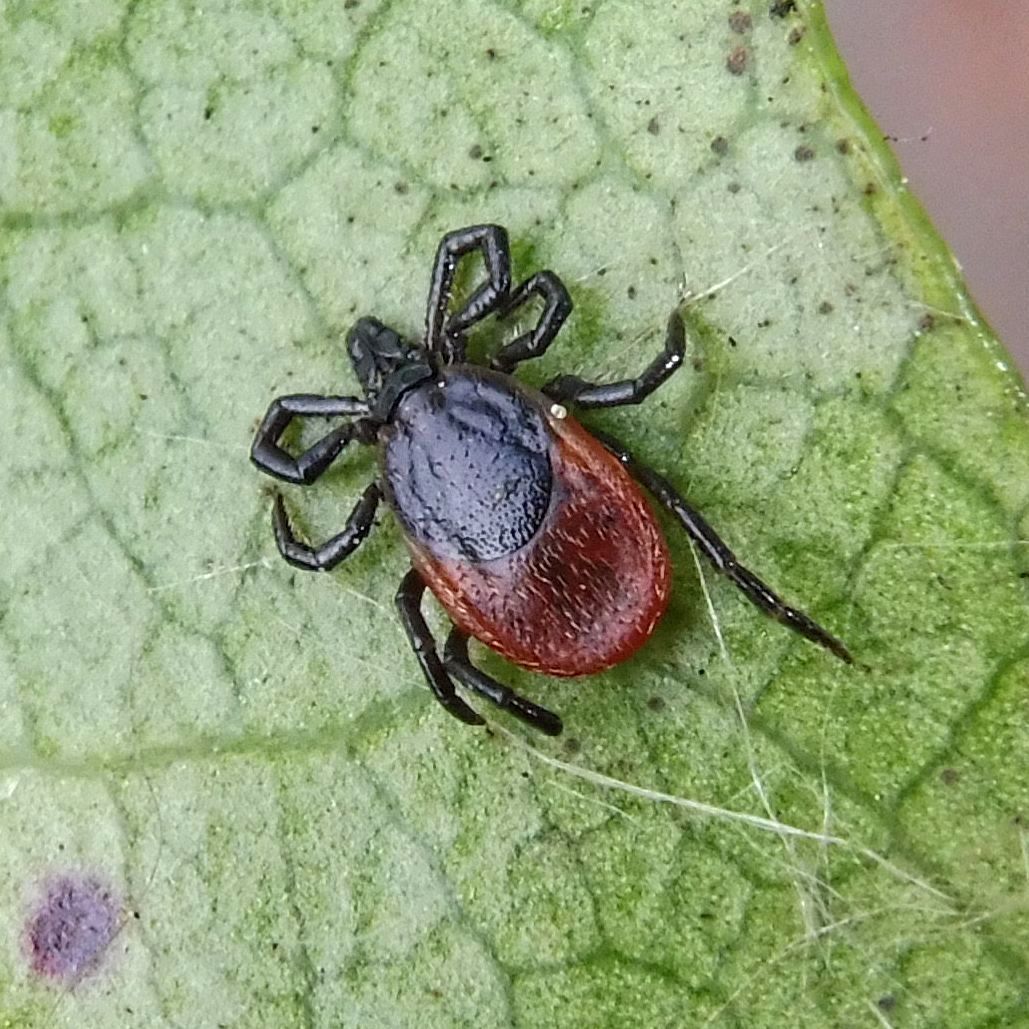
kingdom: Animalia
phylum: Arthropoda
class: Arachnida
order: Ixodida
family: Ixodidae
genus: Ixodes
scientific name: Ixodes ricinus
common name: Castor bean tick
